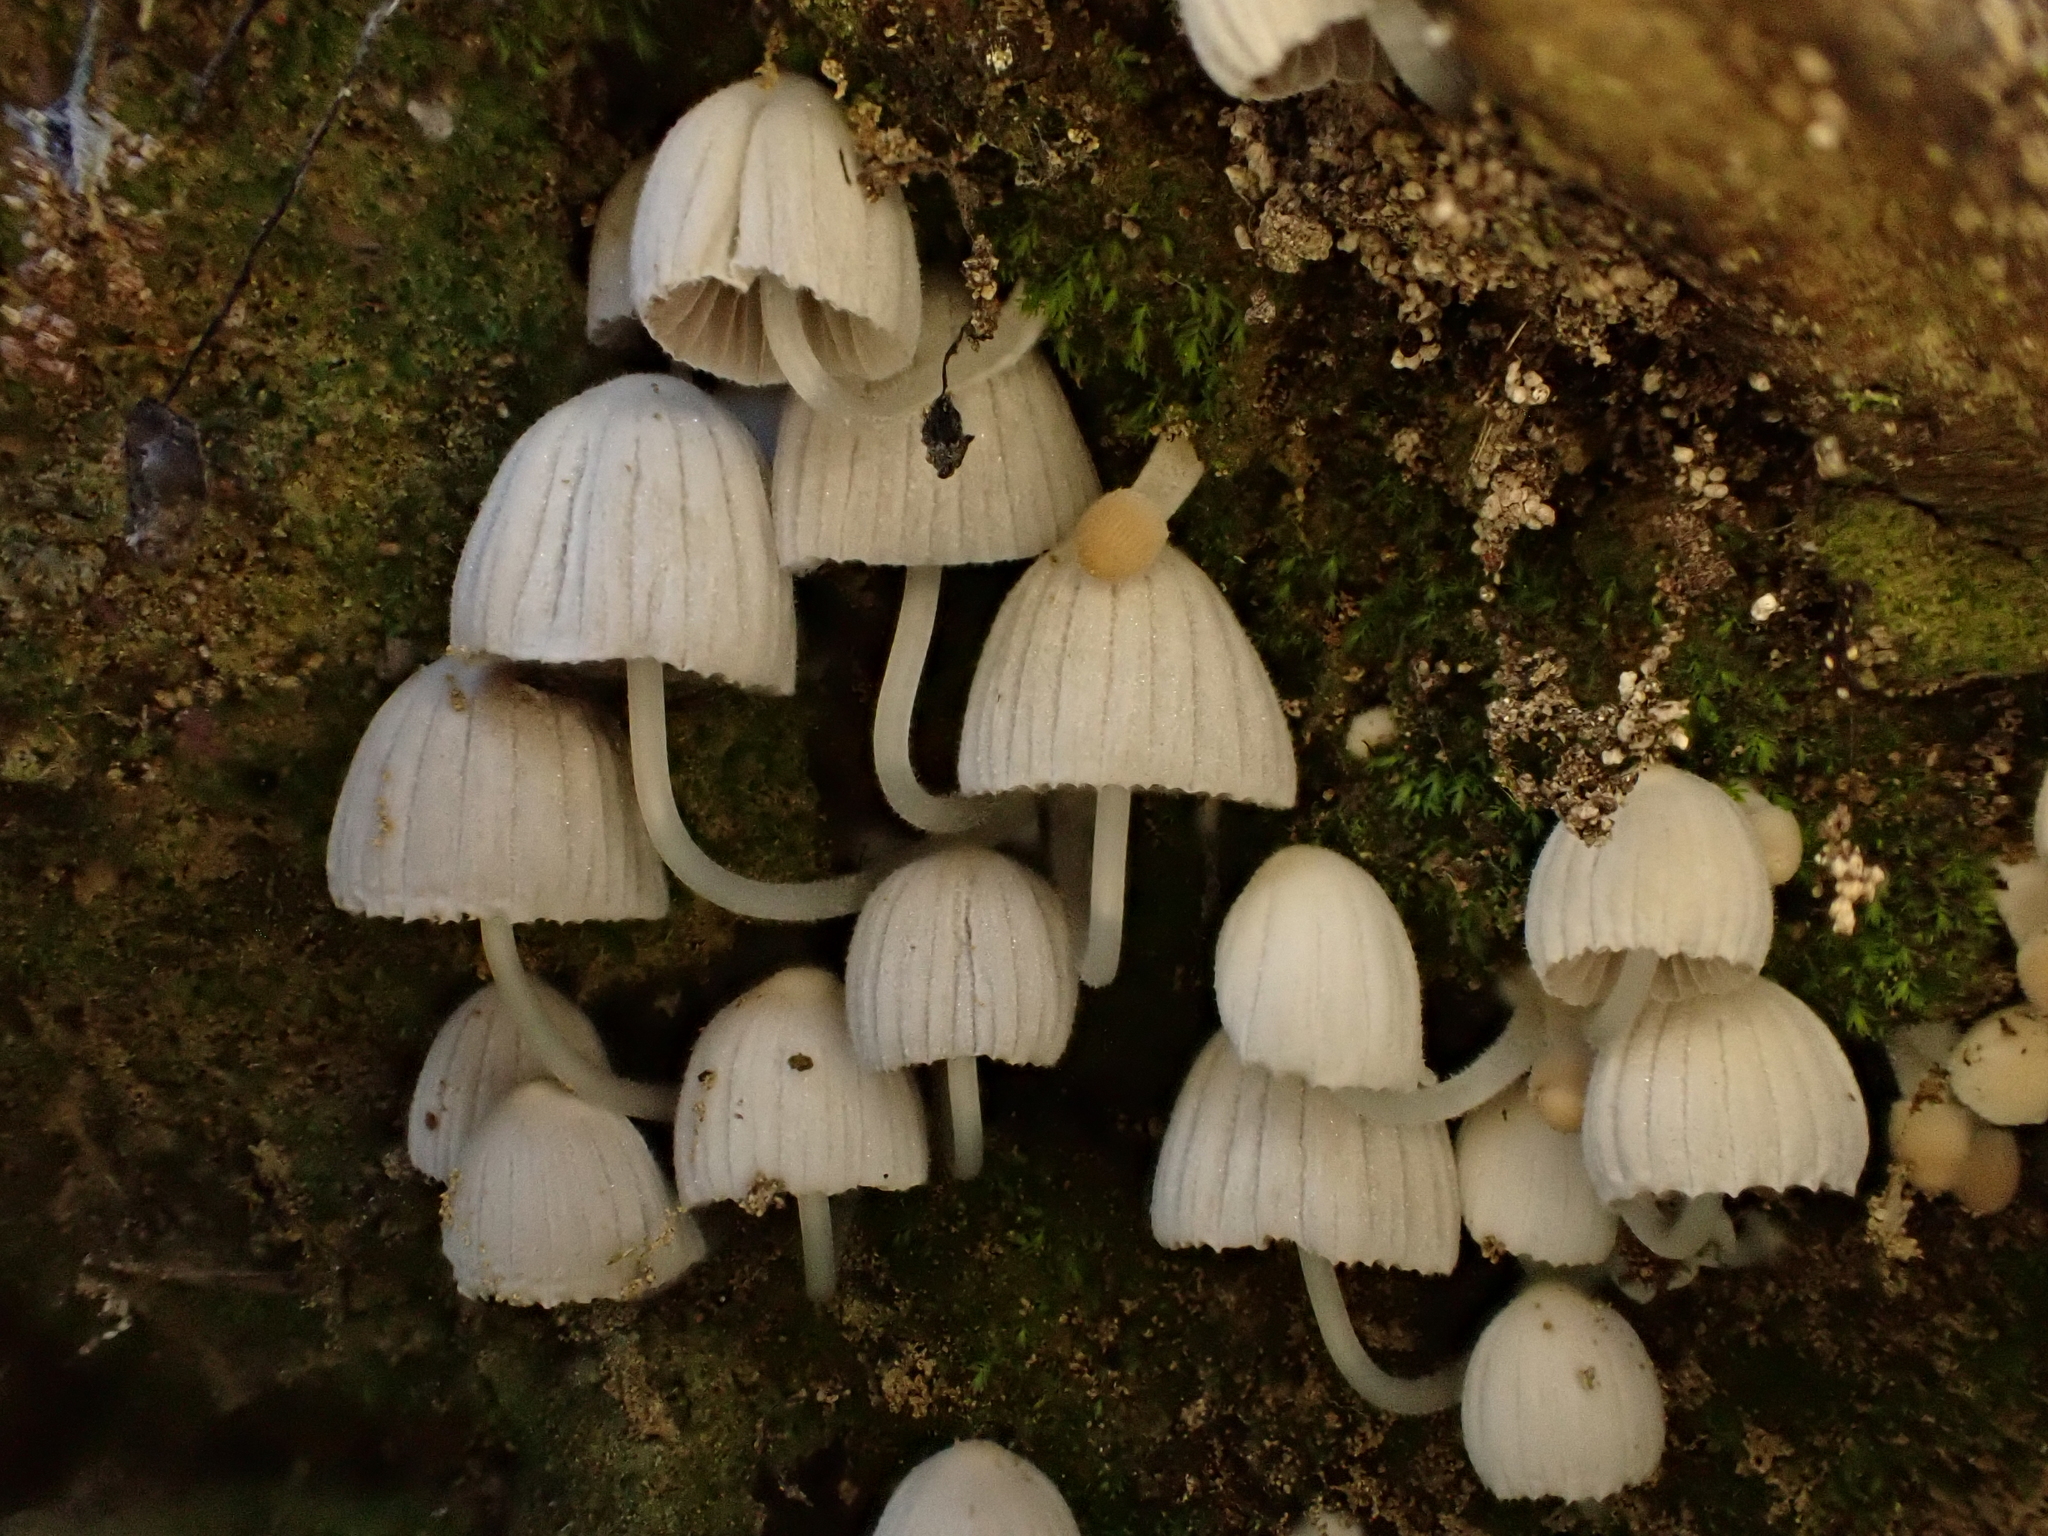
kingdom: Fungi
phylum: Basidiomycota
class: Agaricomycetes
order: Agaricales
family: Psathyrellaceae
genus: Coprinellus
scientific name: Coprinellus
